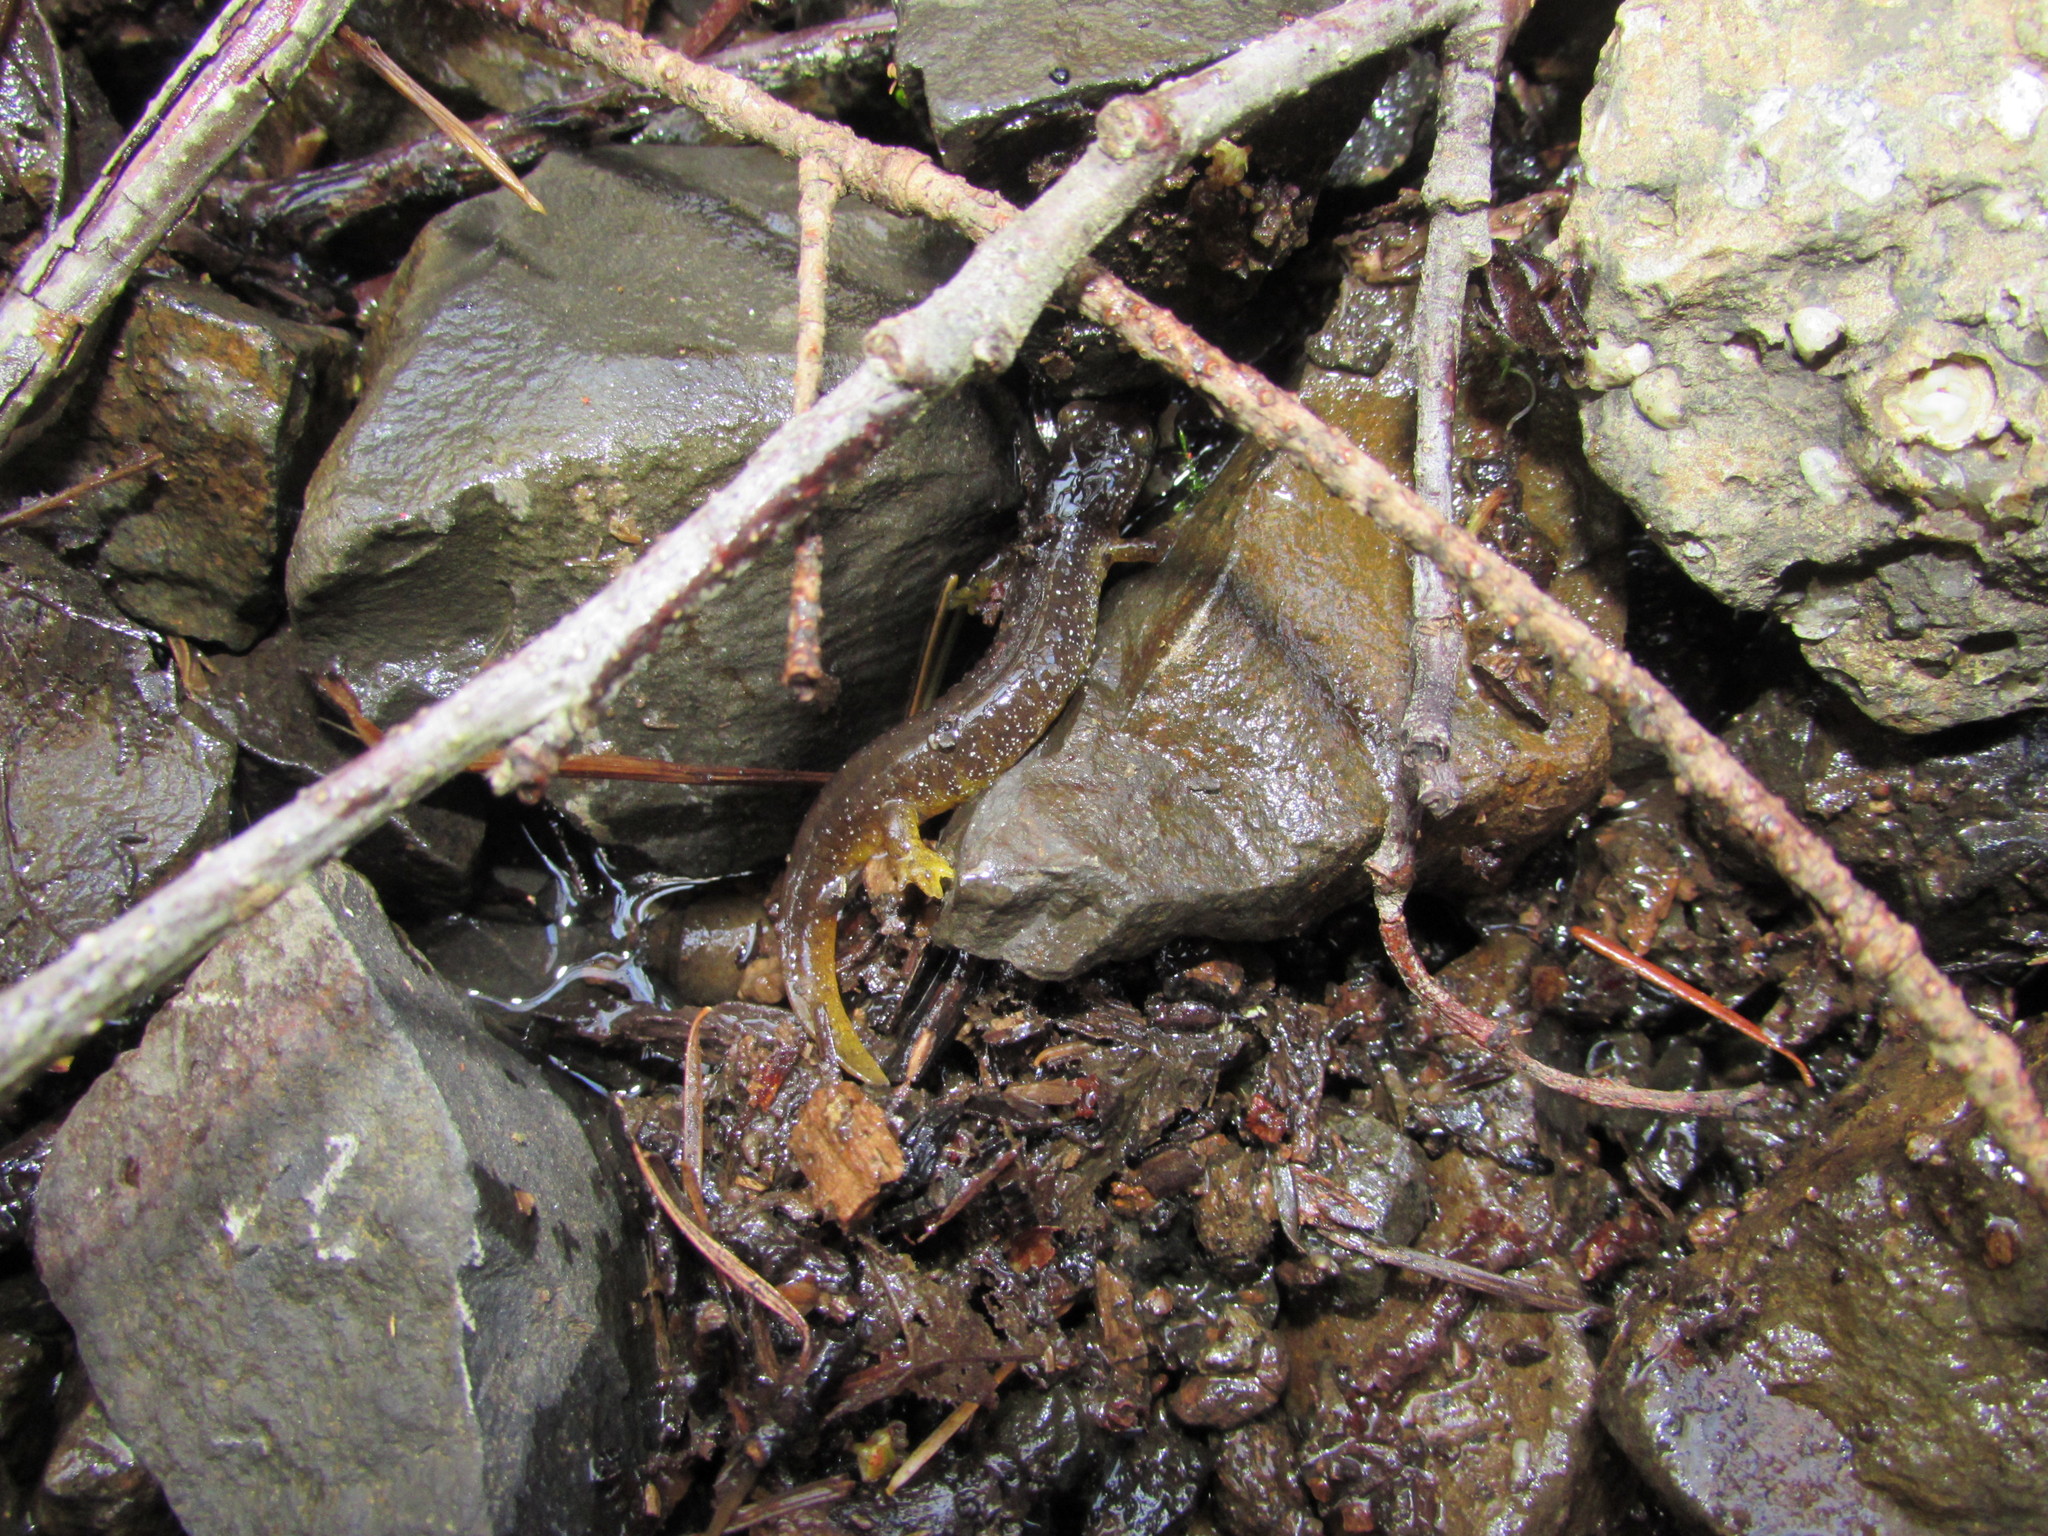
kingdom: Animalia
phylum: Chordata
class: Amphibia
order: Caudata
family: Rhyacotritonidae
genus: Rhyacotriton
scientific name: Rhyacotriton kezeri
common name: Columbia torrent salamander
